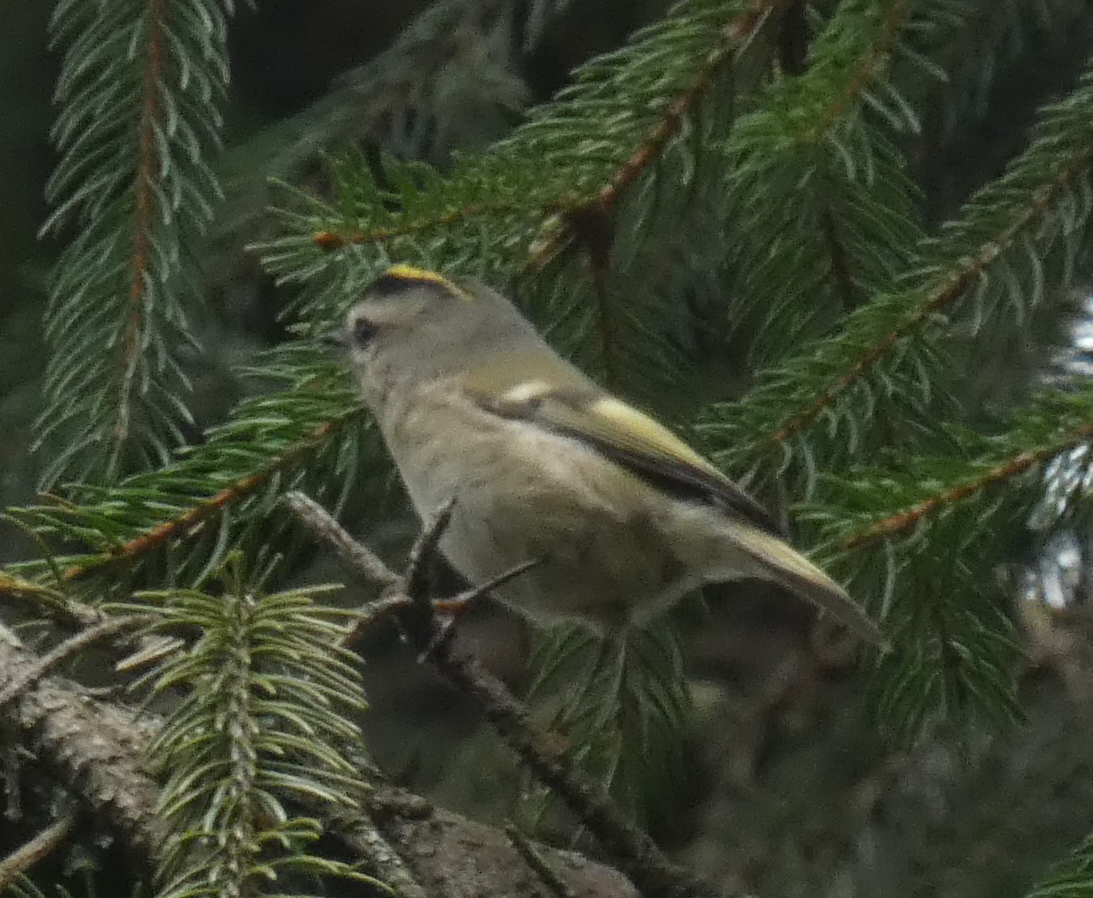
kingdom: Animalia
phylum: Chordata
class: Aves
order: Passeriformes
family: Regulidae
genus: Regulus
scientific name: Regulus satrapa
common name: Golden-crowned kinglet
